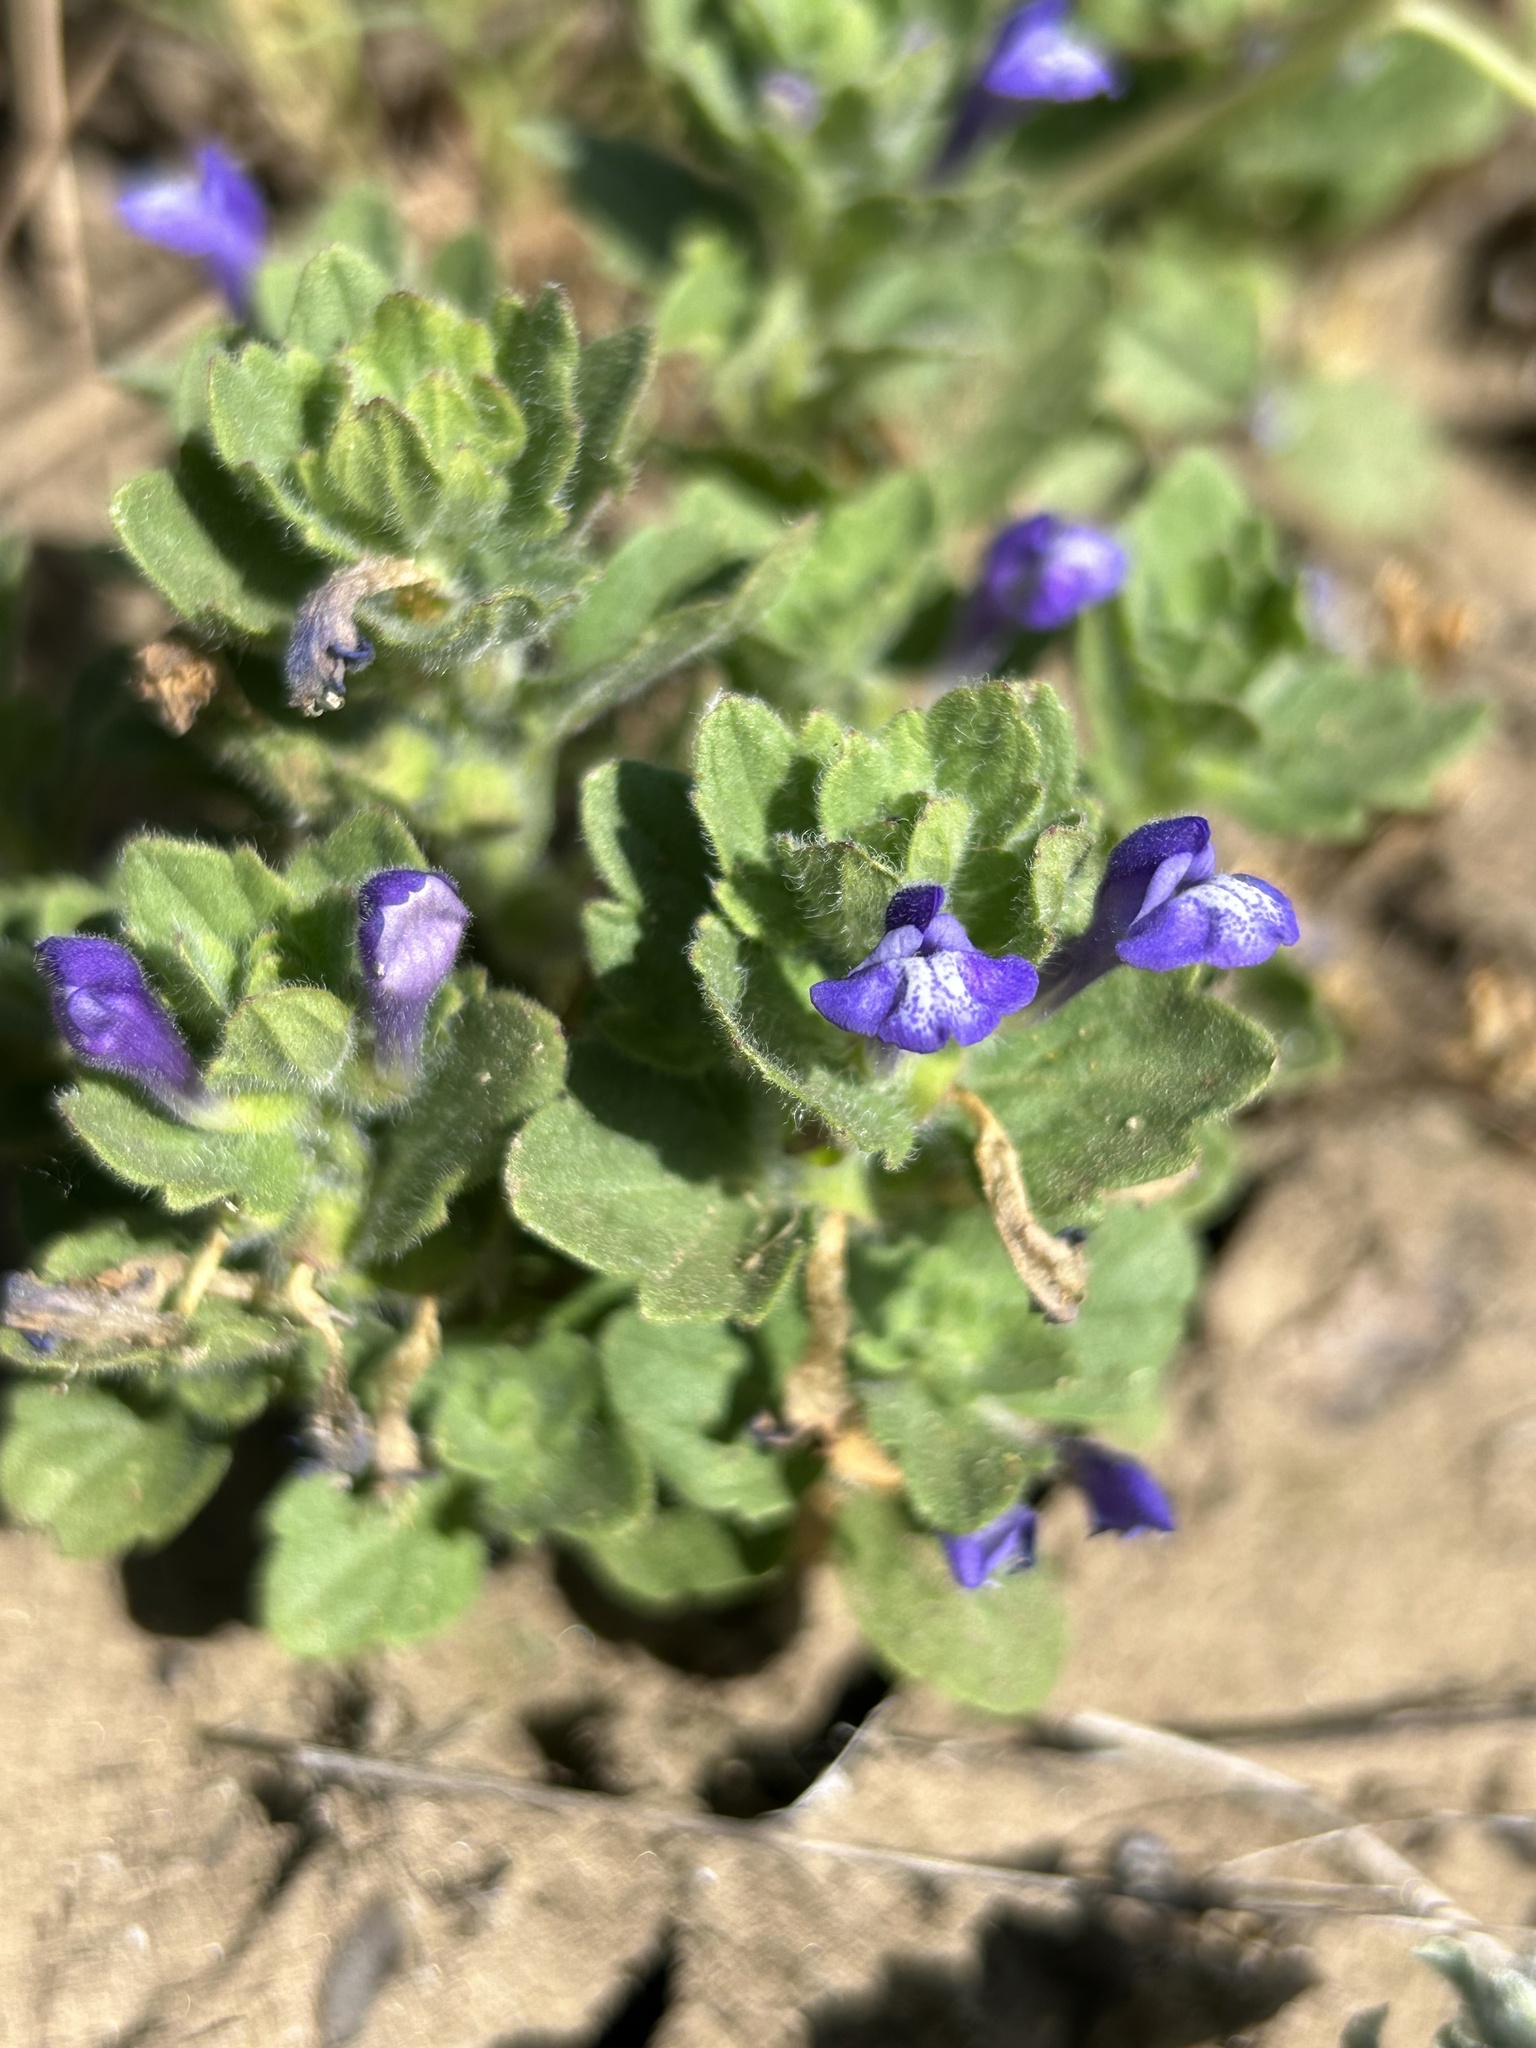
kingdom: Plantae
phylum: Tracheophyta
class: Magnoliopsida
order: Lamiales
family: Lamiaceae
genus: Scutellaria
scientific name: Scutellaria tuberosa
